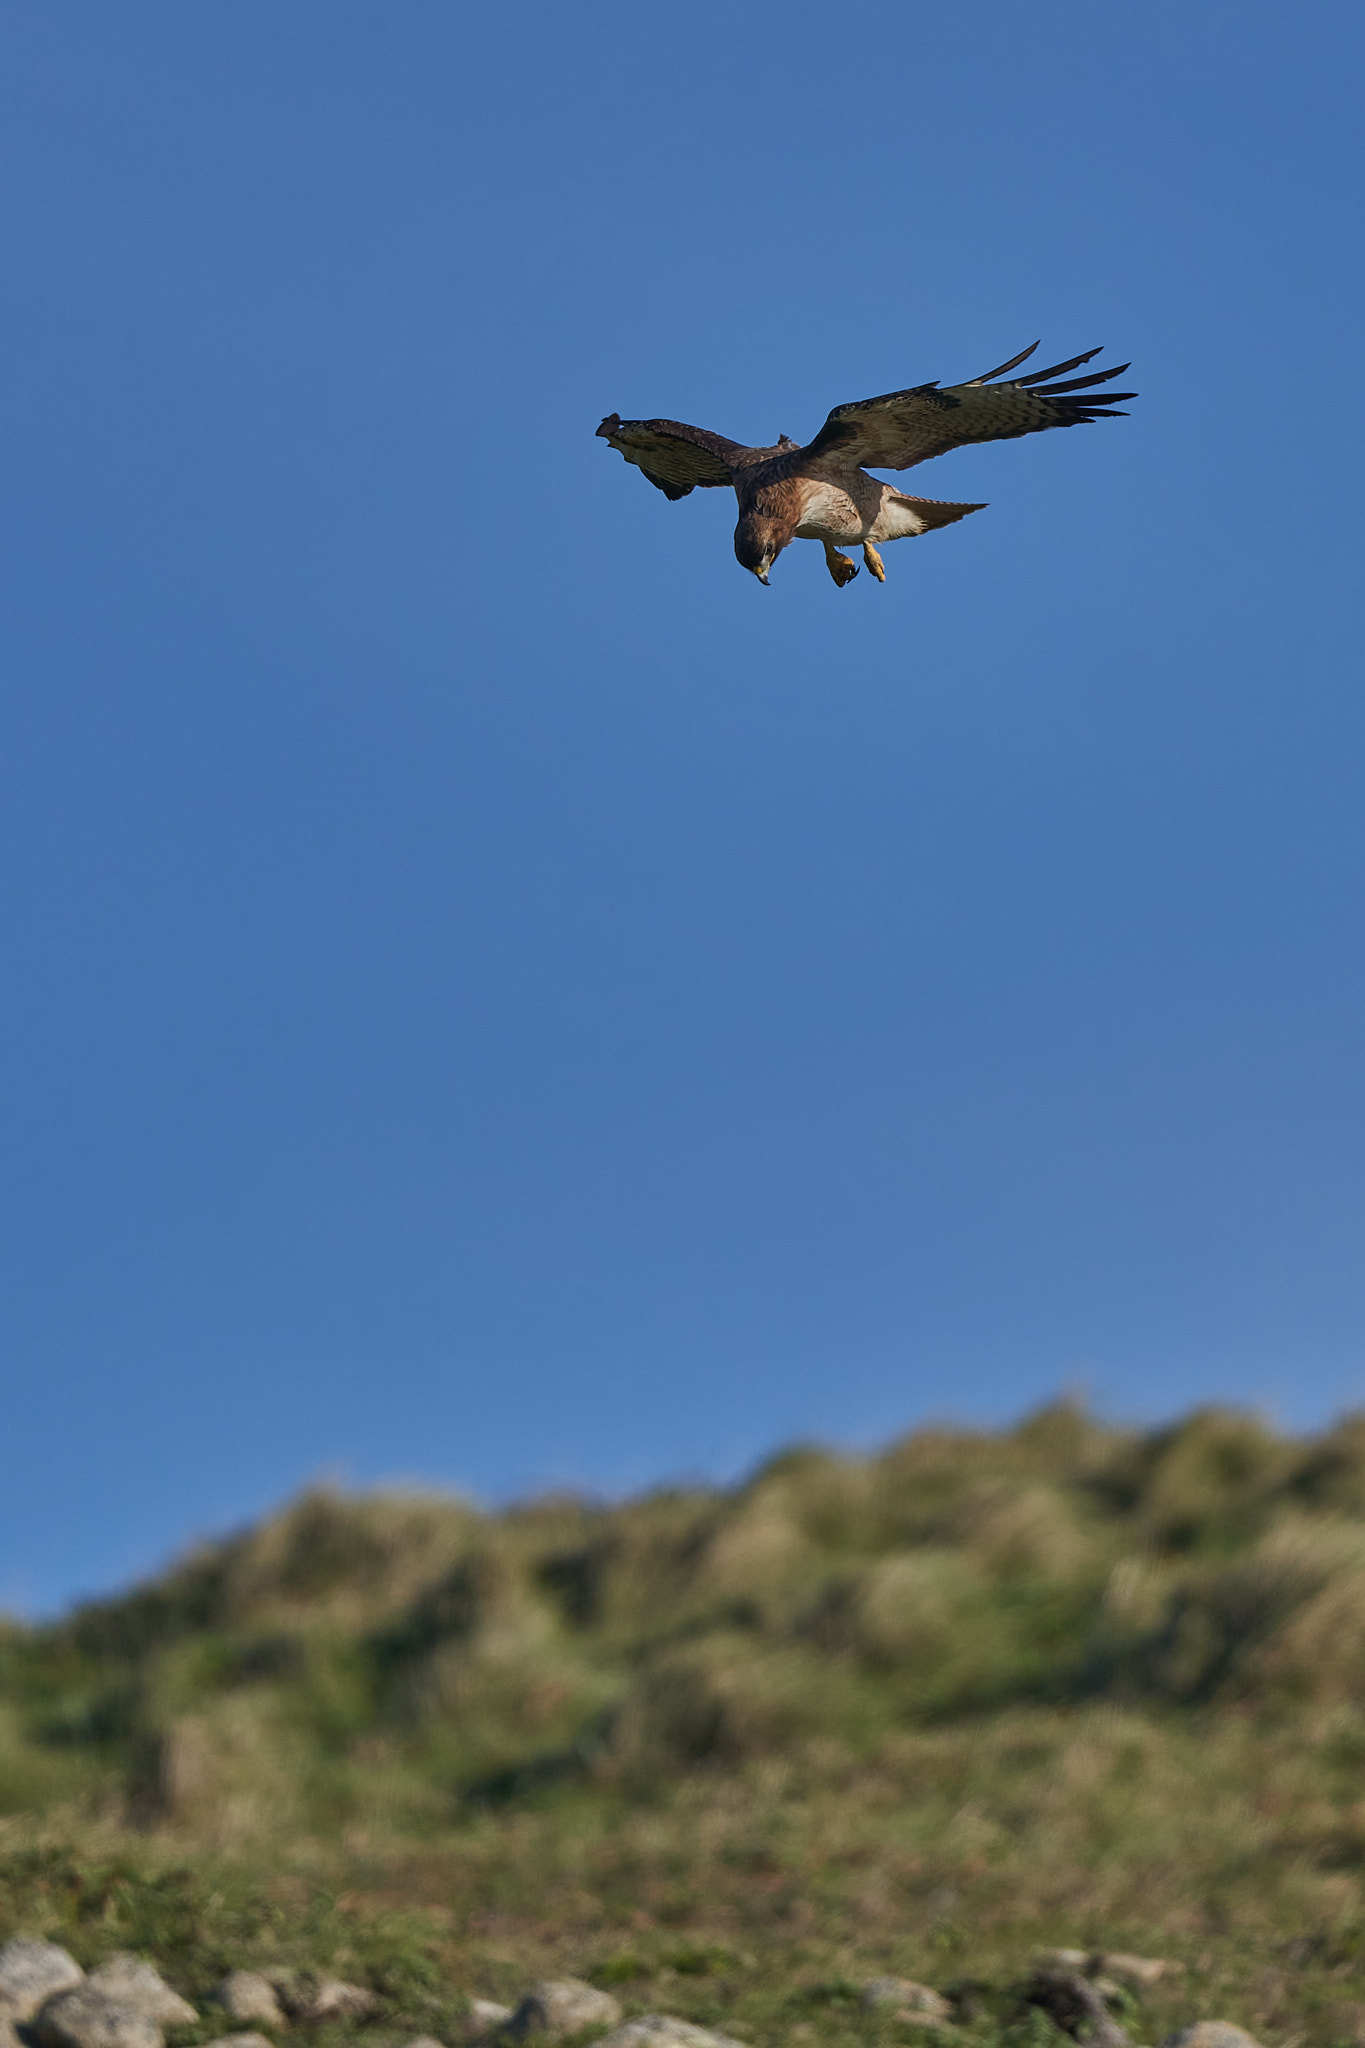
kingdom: Animalia
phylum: Chordata
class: Aves
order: Accipitriformes
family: Accipitridae
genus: Buteo
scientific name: Buteo jamaicensis
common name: Red-tailed hawk
